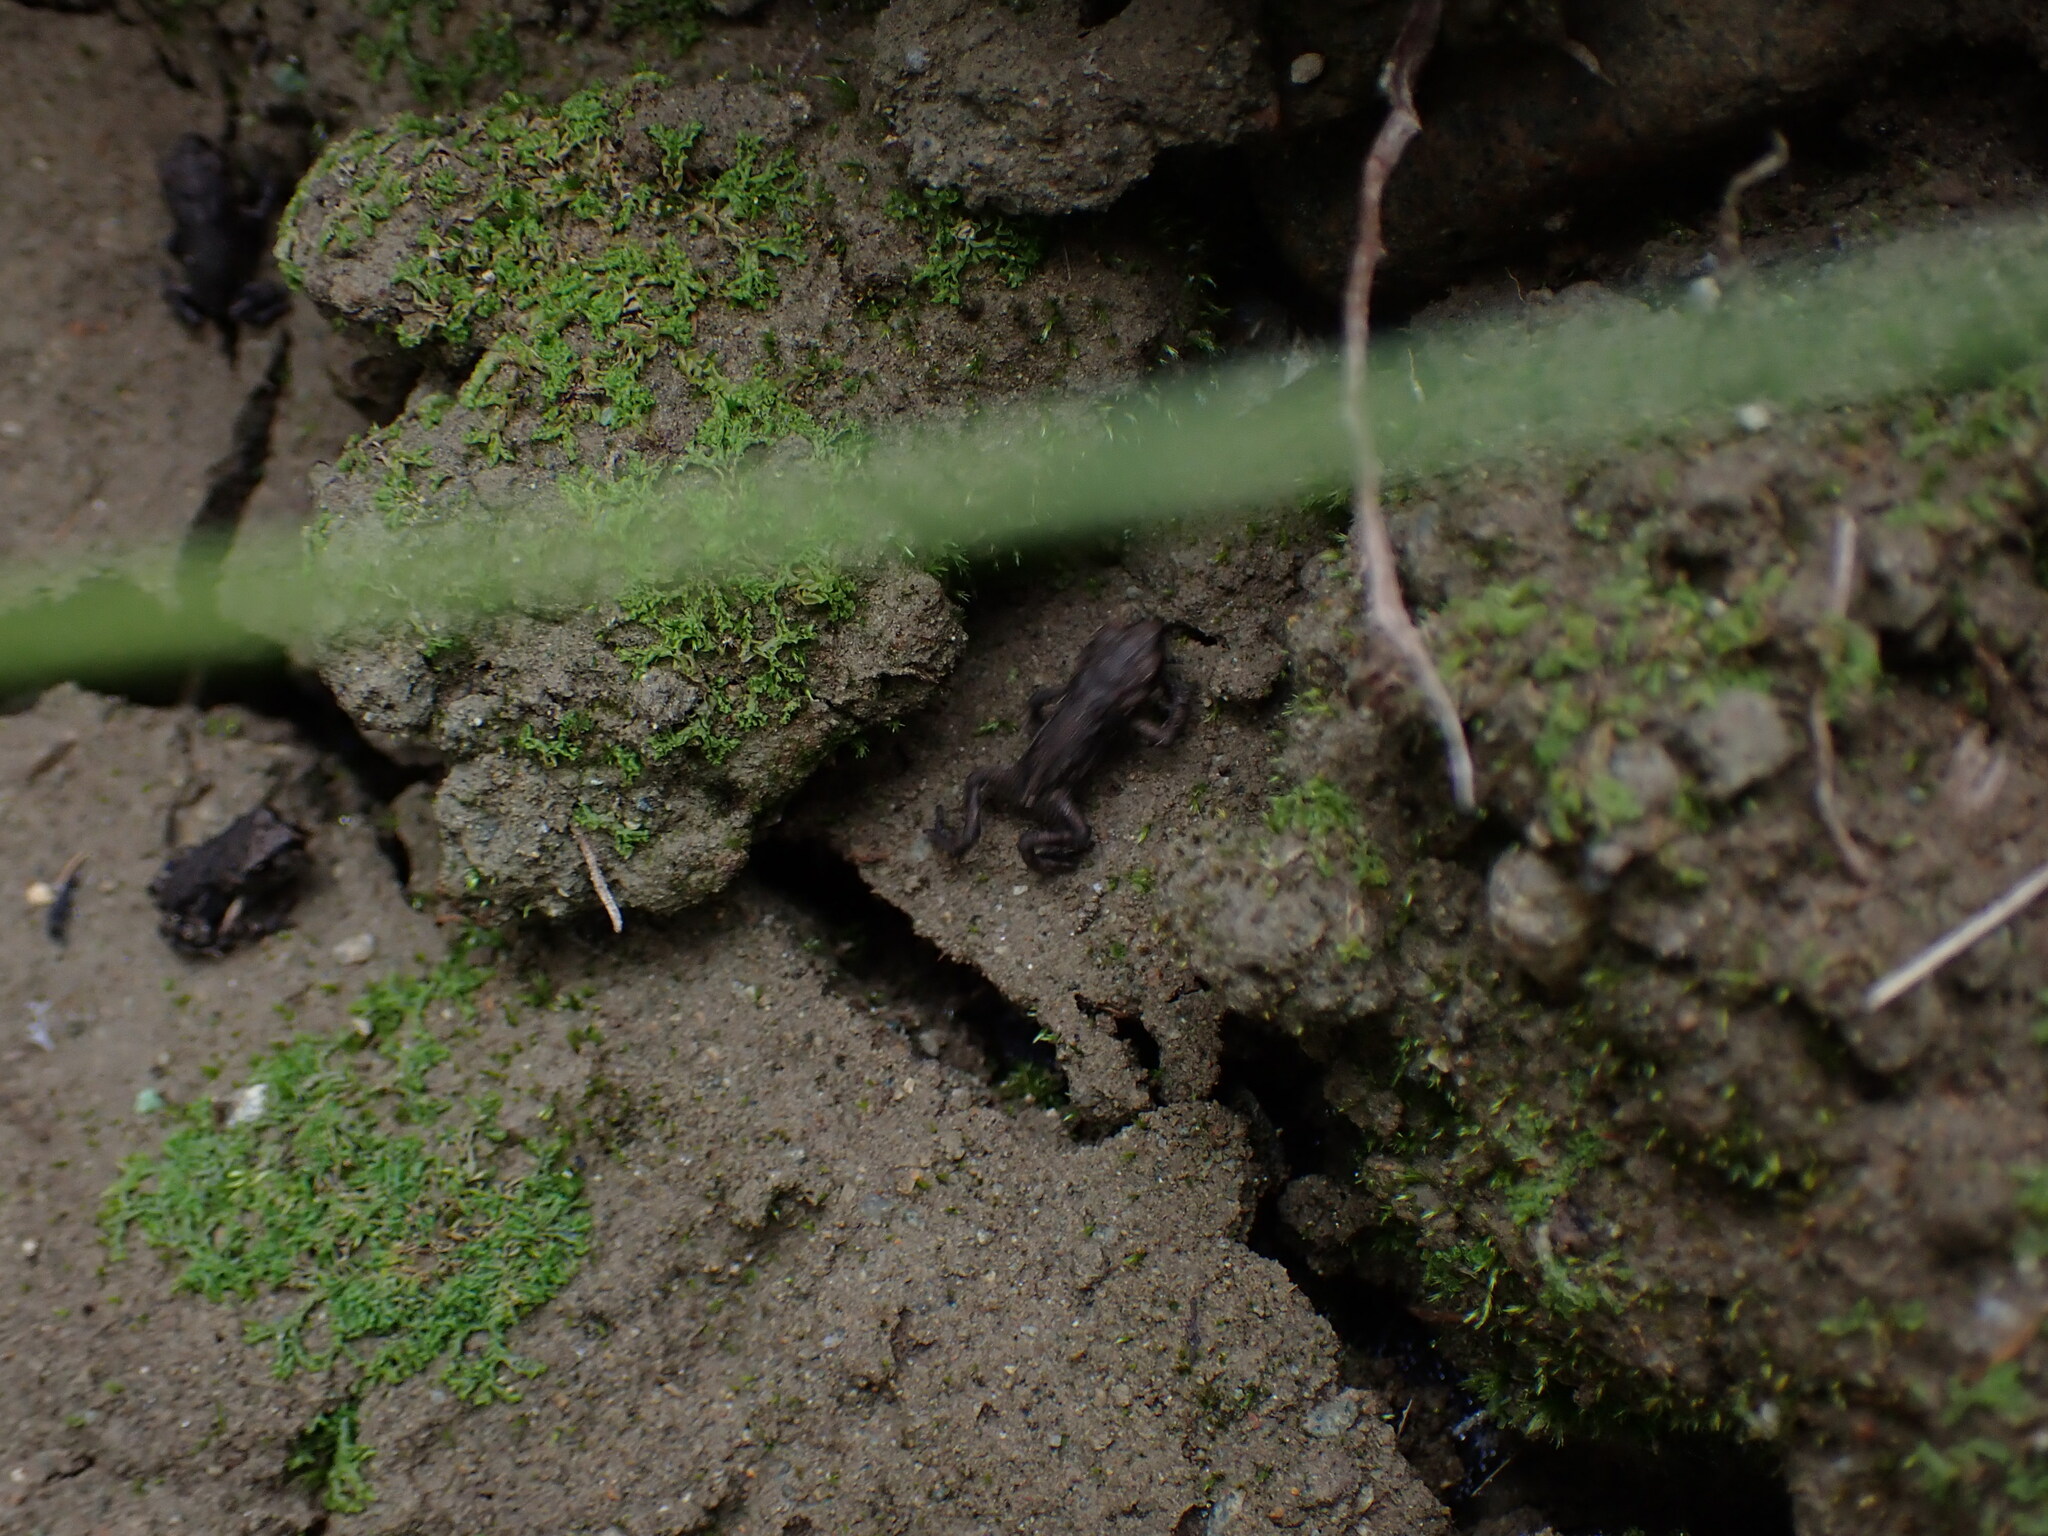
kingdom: Animalia
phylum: Chordata
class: Amphibia
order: Anura
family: Bufonidae
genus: Anaxyrus
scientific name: Anaxyrus boreas
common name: Western toad
